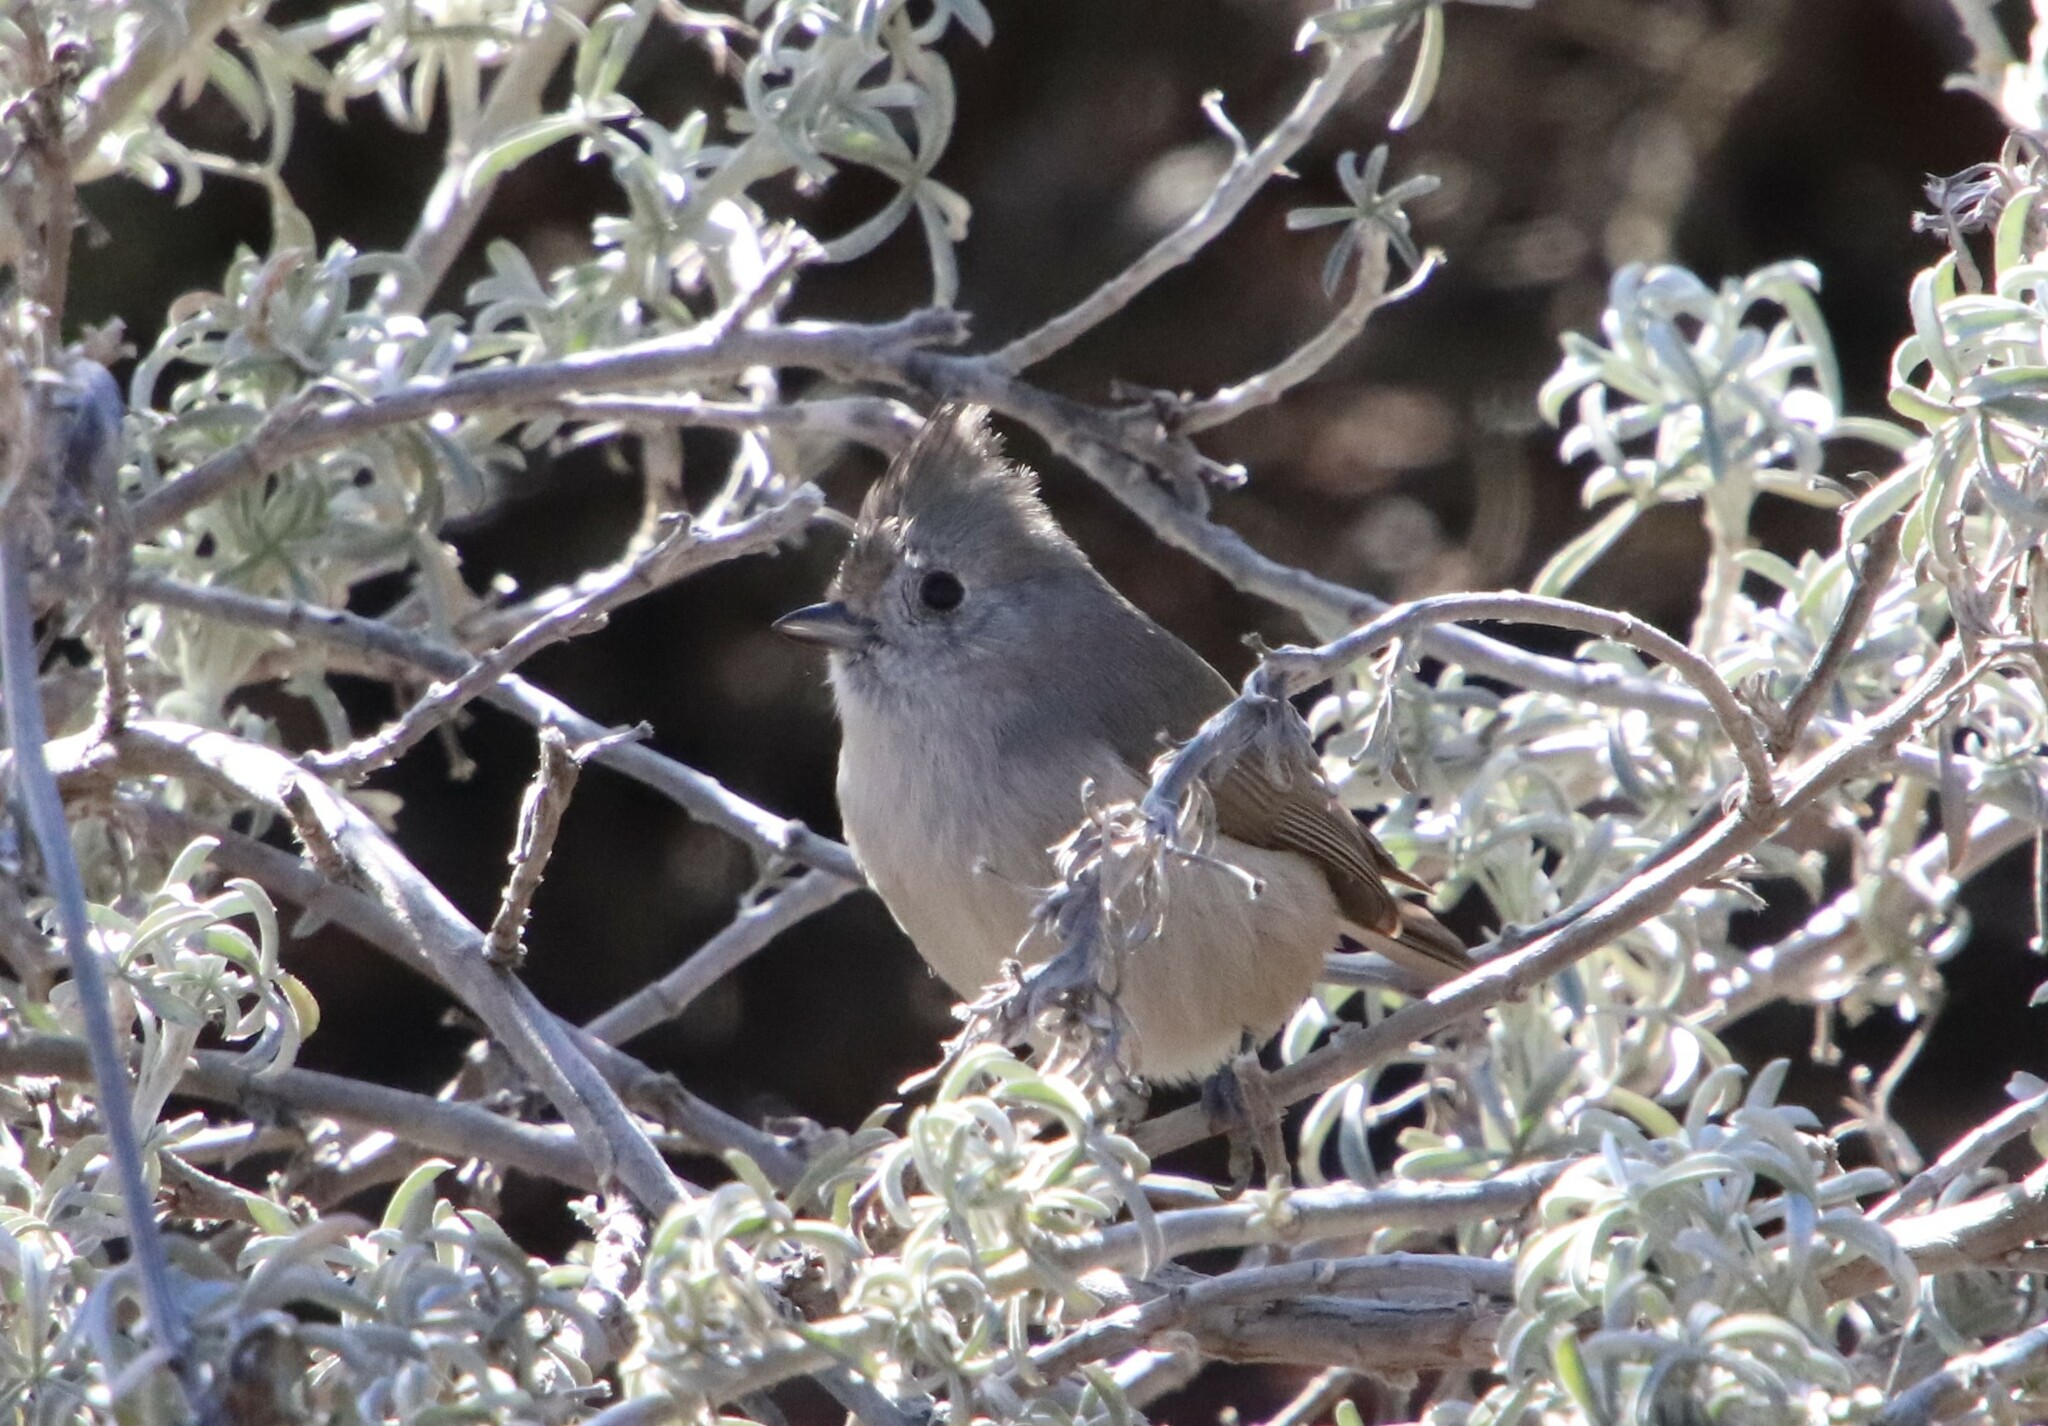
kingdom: Animalia
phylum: Chordata
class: Aves
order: Passeriformes
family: Paridae
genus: Baeolophus
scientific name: Baeolophus inornatus
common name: Oak titmouse
